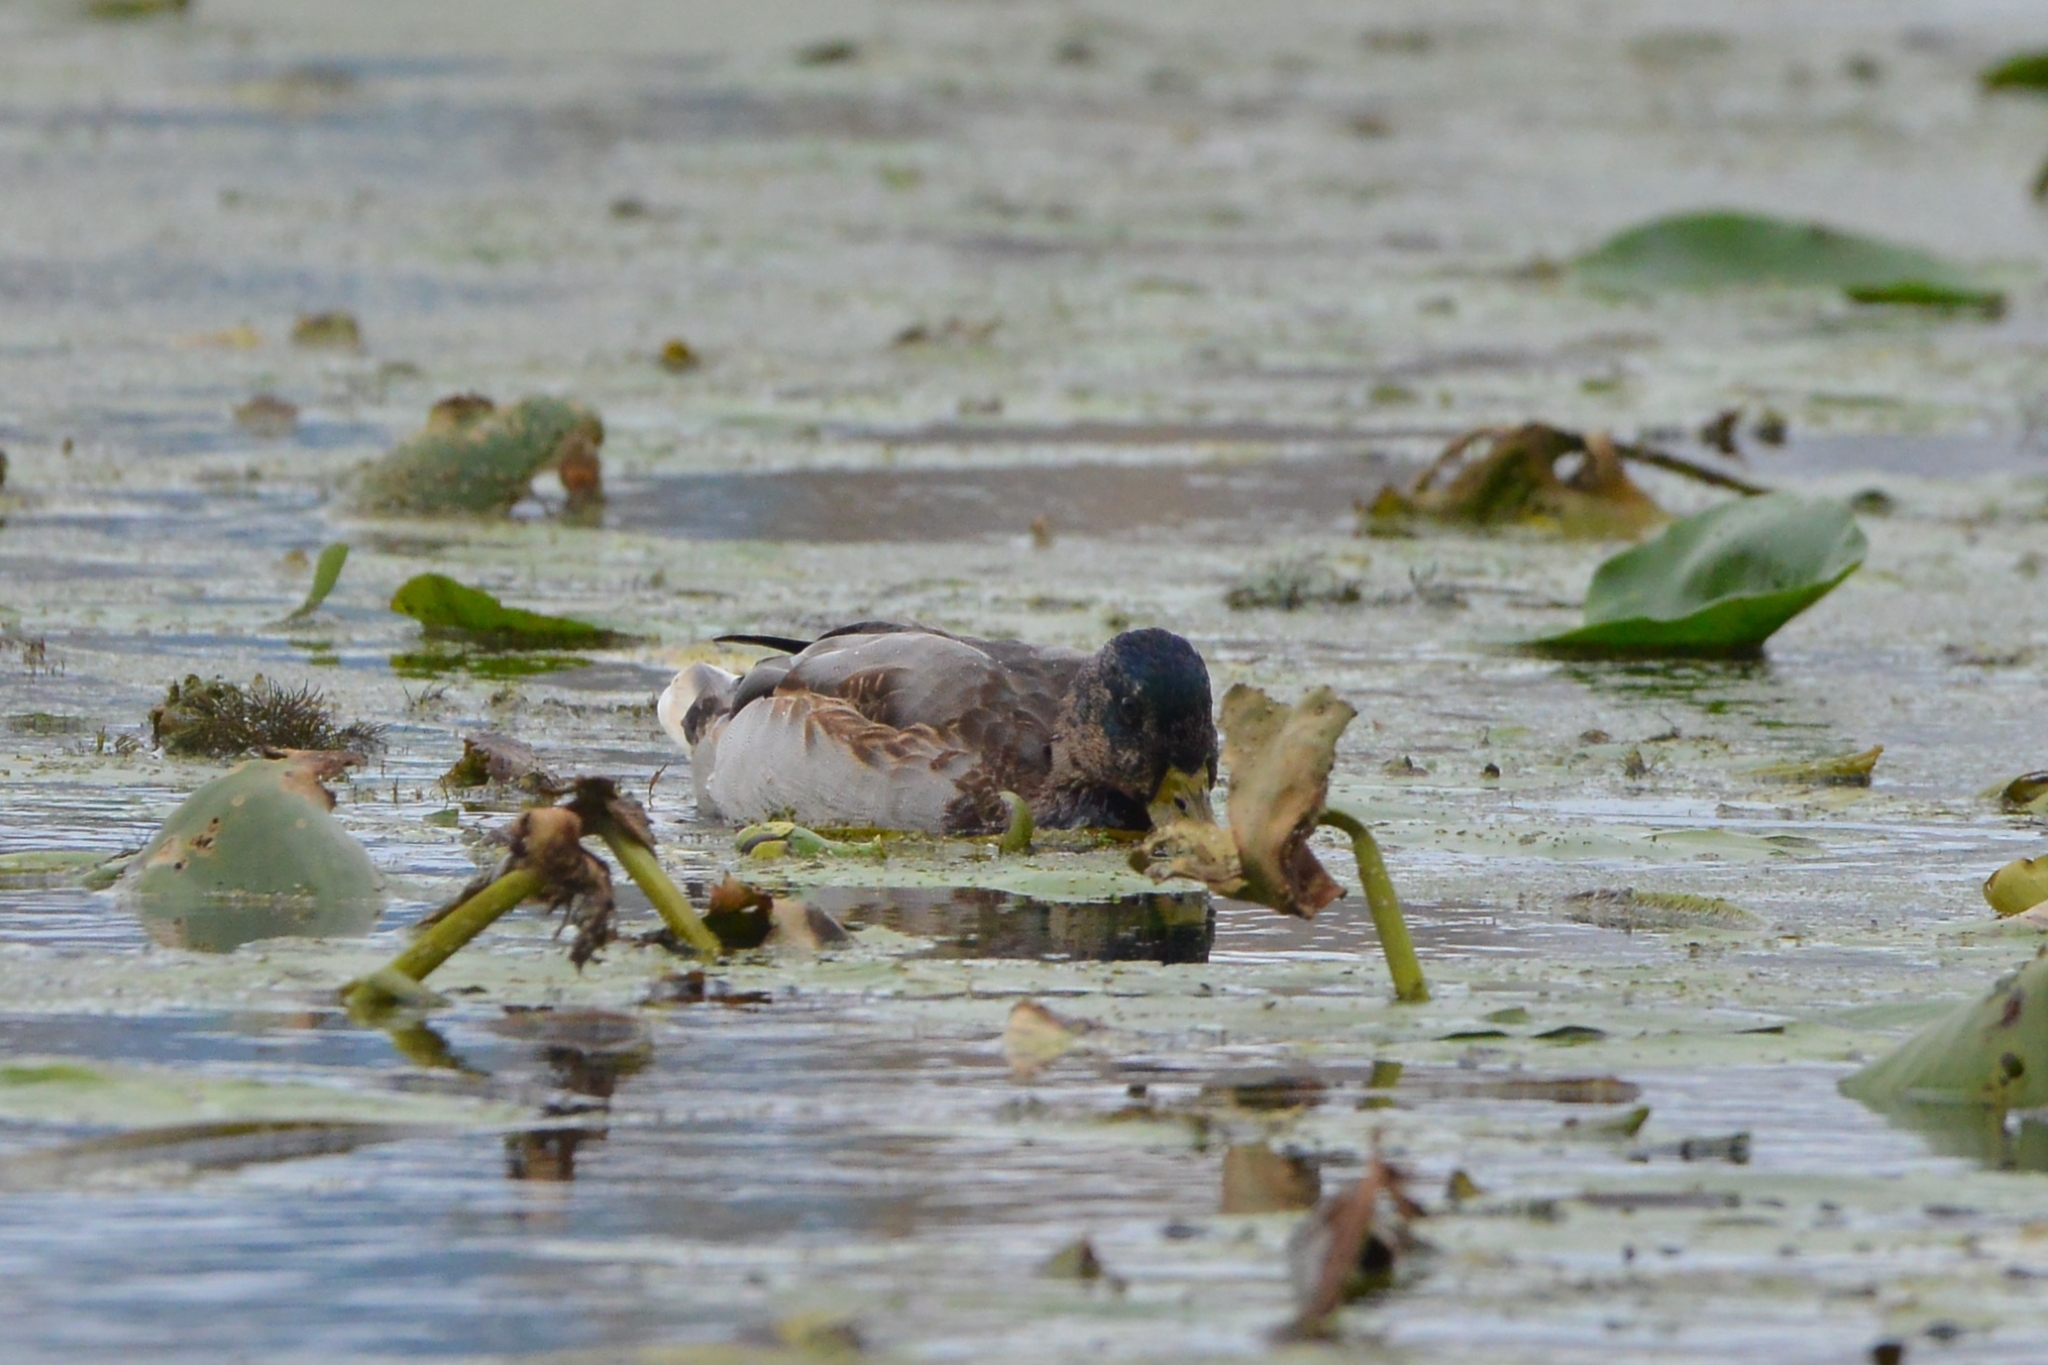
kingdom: Animalia
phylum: Chordata
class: Aves
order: Anseriformes
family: Anatidae
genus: Anas
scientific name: Anas platyrhynchos
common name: Mallard
